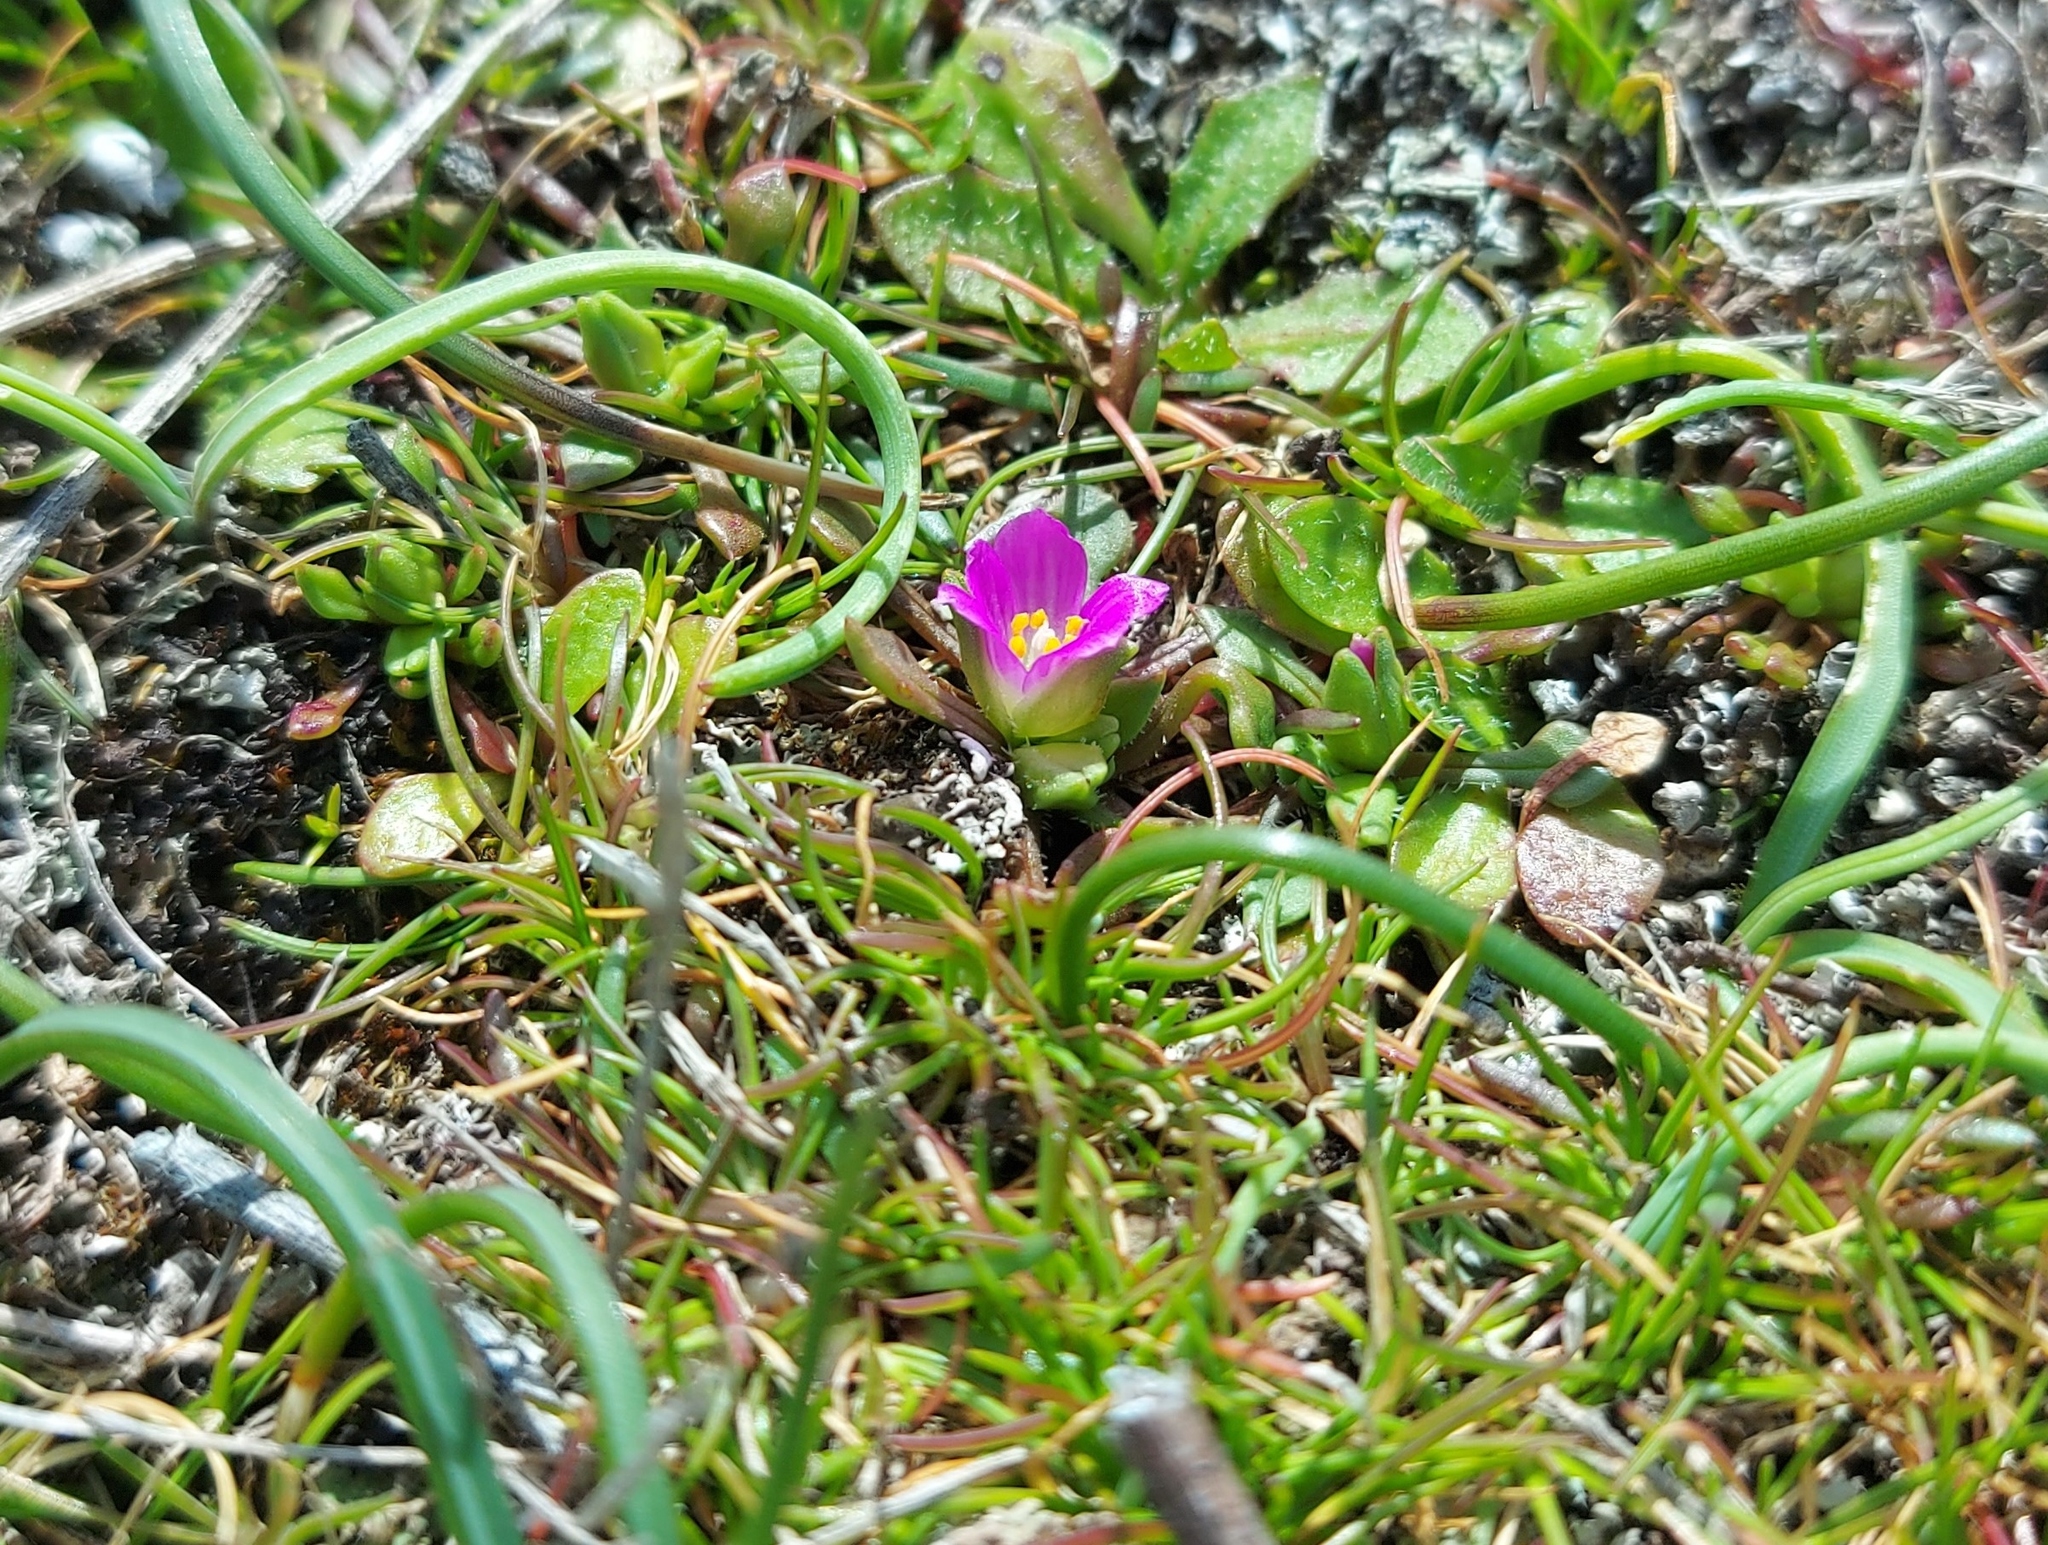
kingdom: Plantae
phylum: Tracheophyta
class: Magnoliopsida
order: Caryophyllales
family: Montiaceae
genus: Calandrinia
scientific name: Calandrinia menziesii
